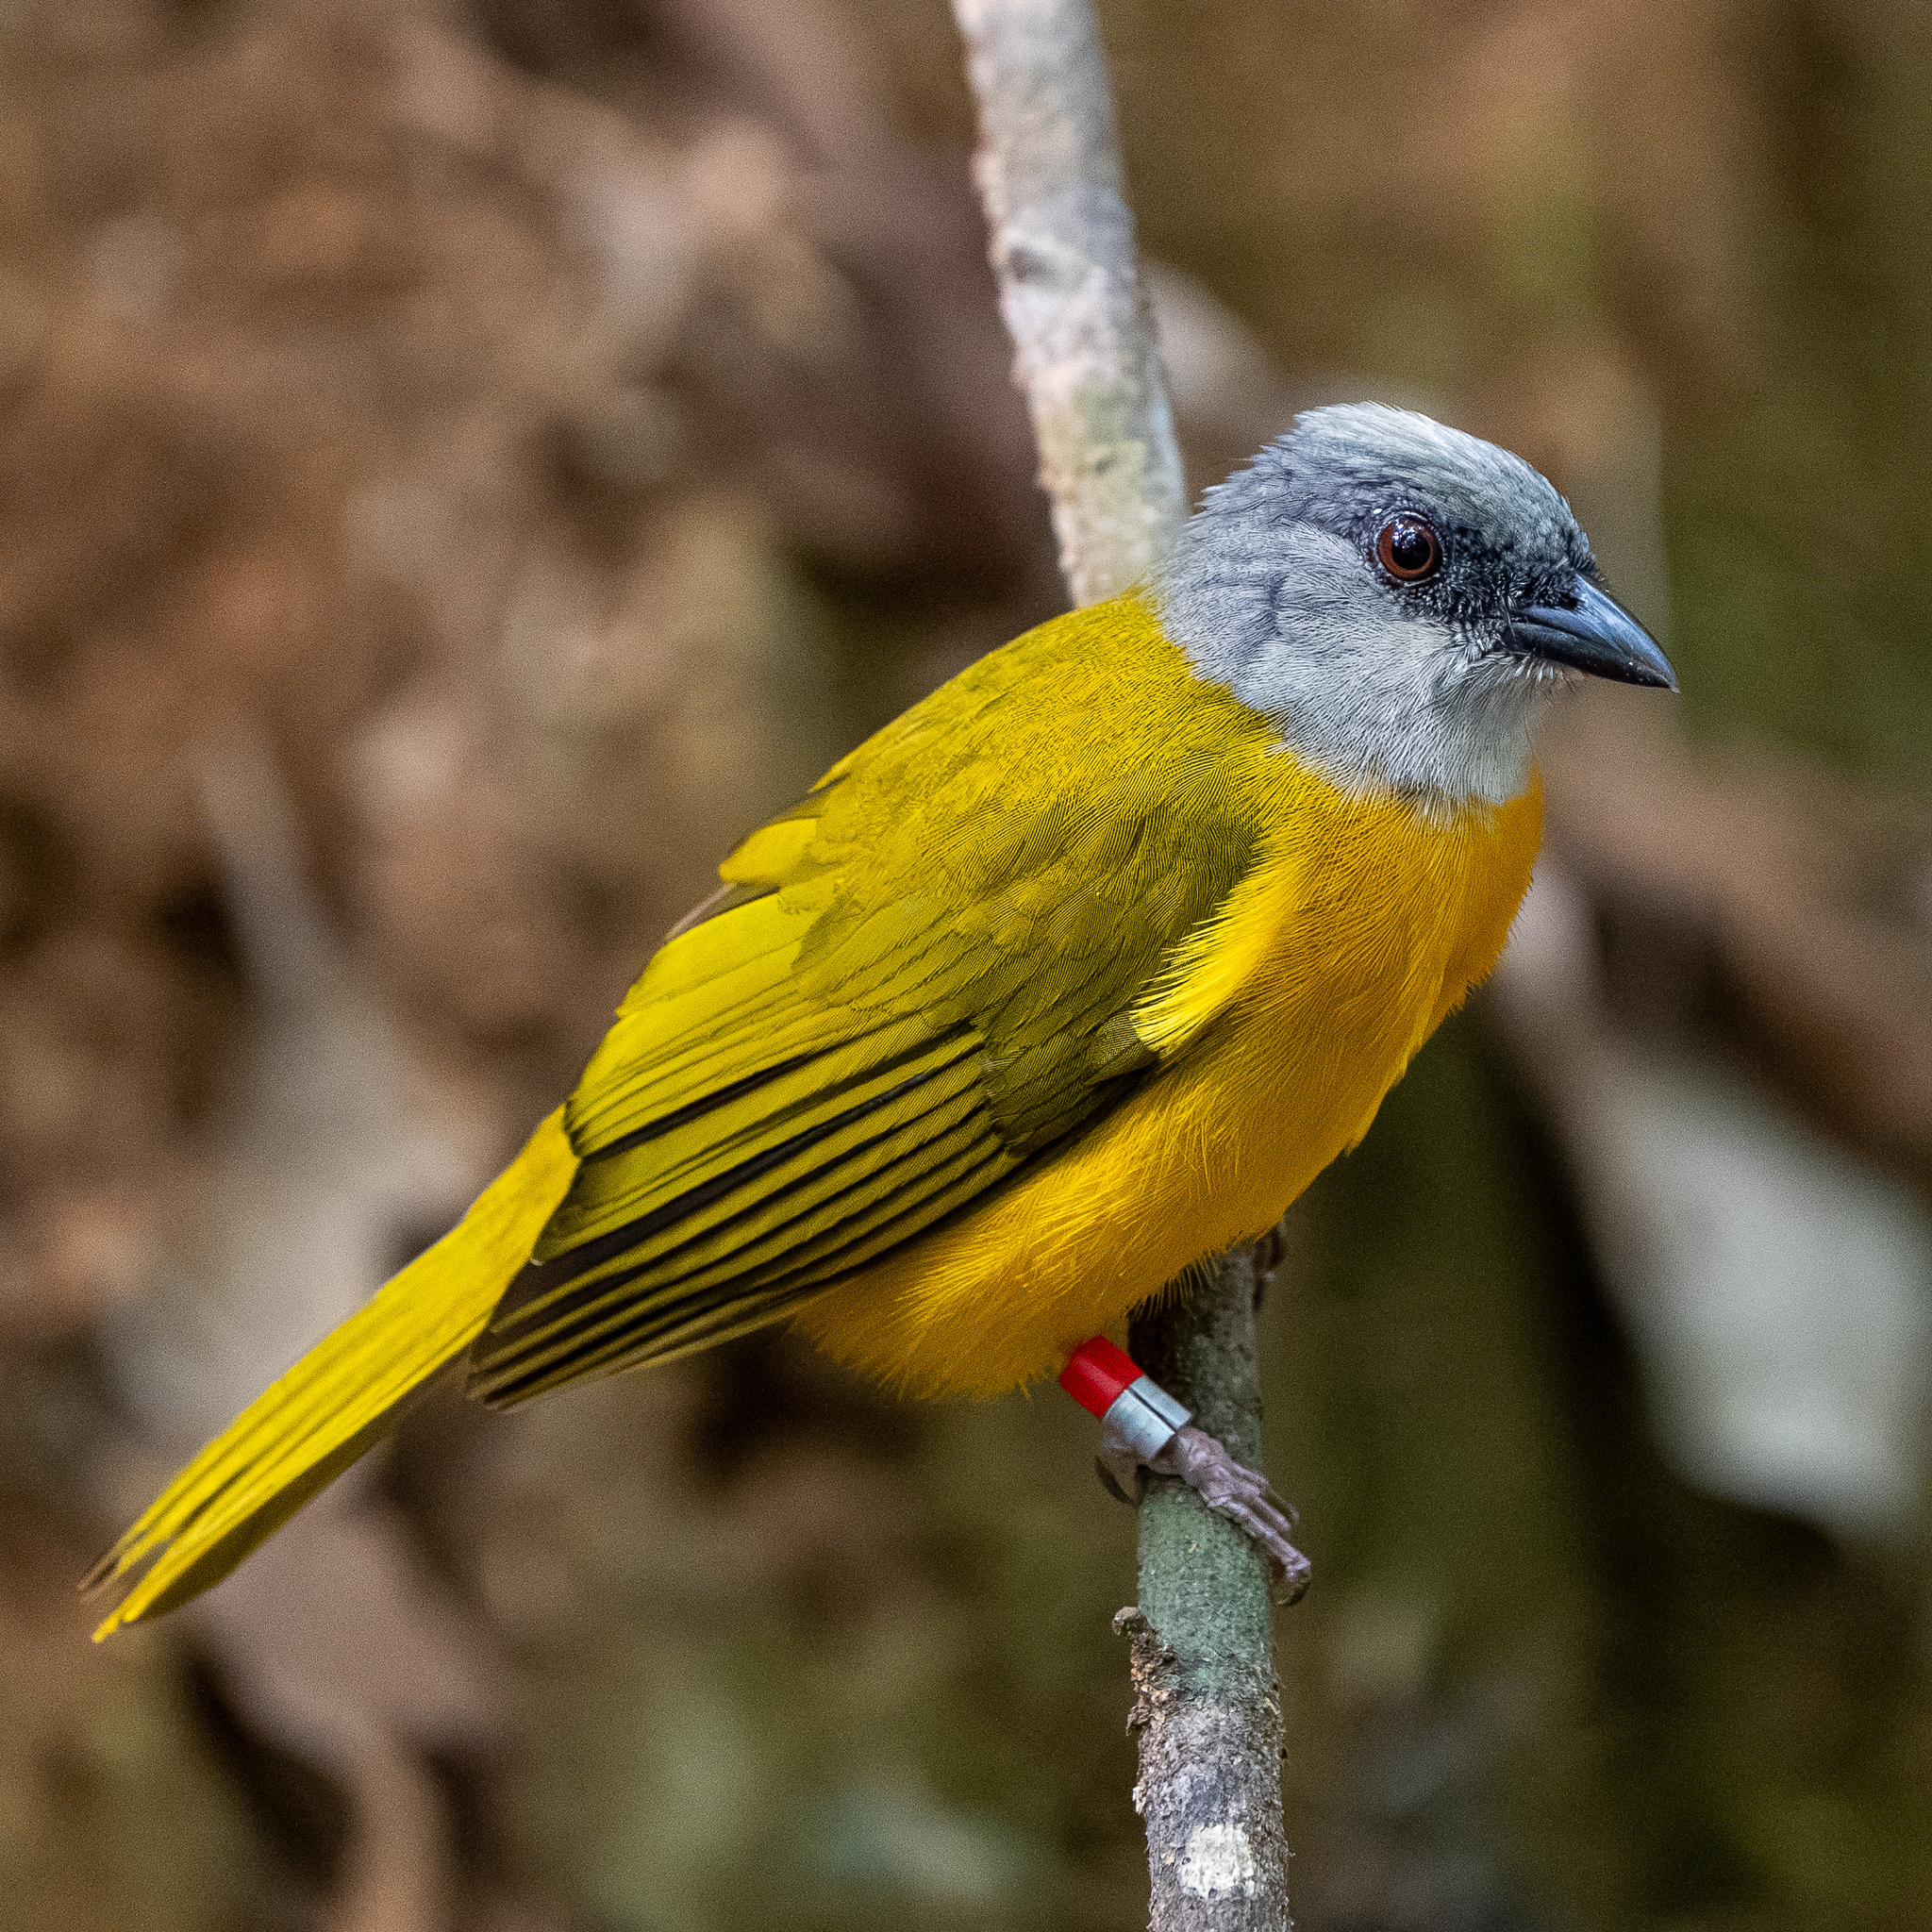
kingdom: Animalia
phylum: Chordata
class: Aves
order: Passeriformes
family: Thraupidae
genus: Eucometis
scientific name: Eucometis penicillata
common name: Grey-headed tanager
